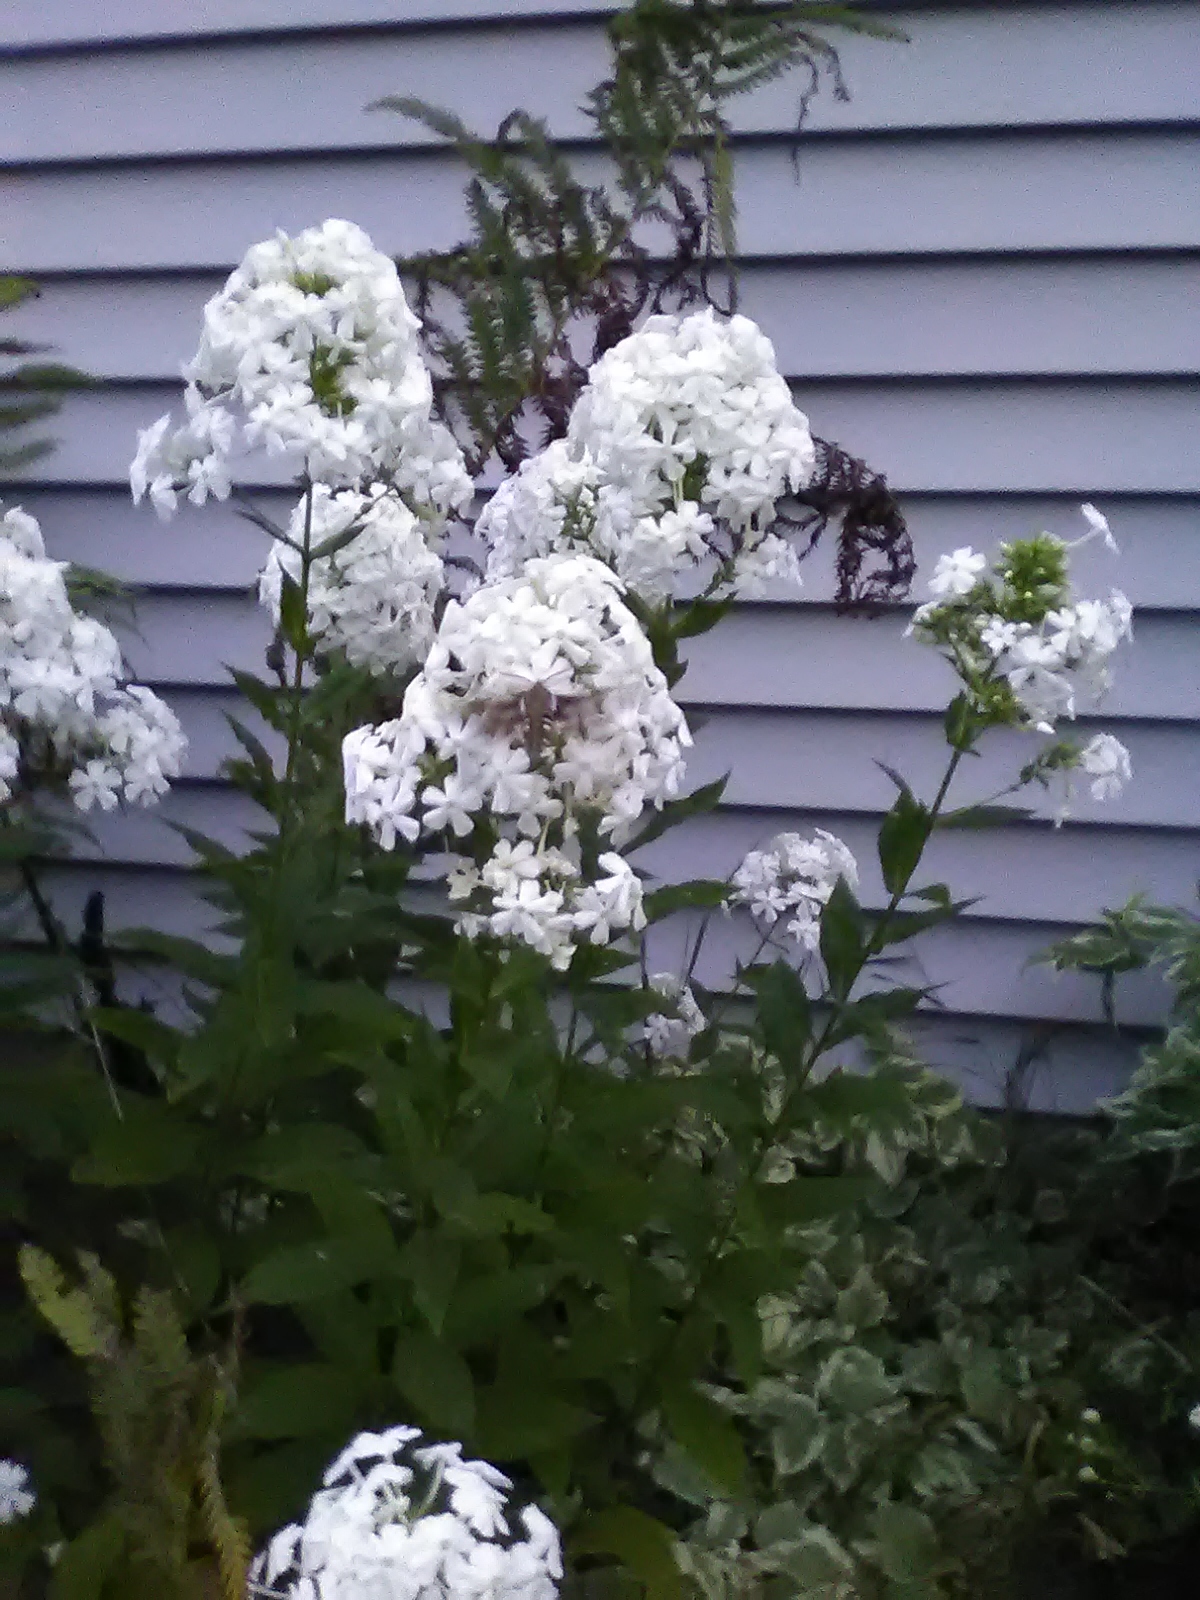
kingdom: Animalia
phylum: Arthropoda
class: Insecta
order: Lepidoptera
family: Sphingidae
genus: Hyles
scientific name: Hyles gallii
